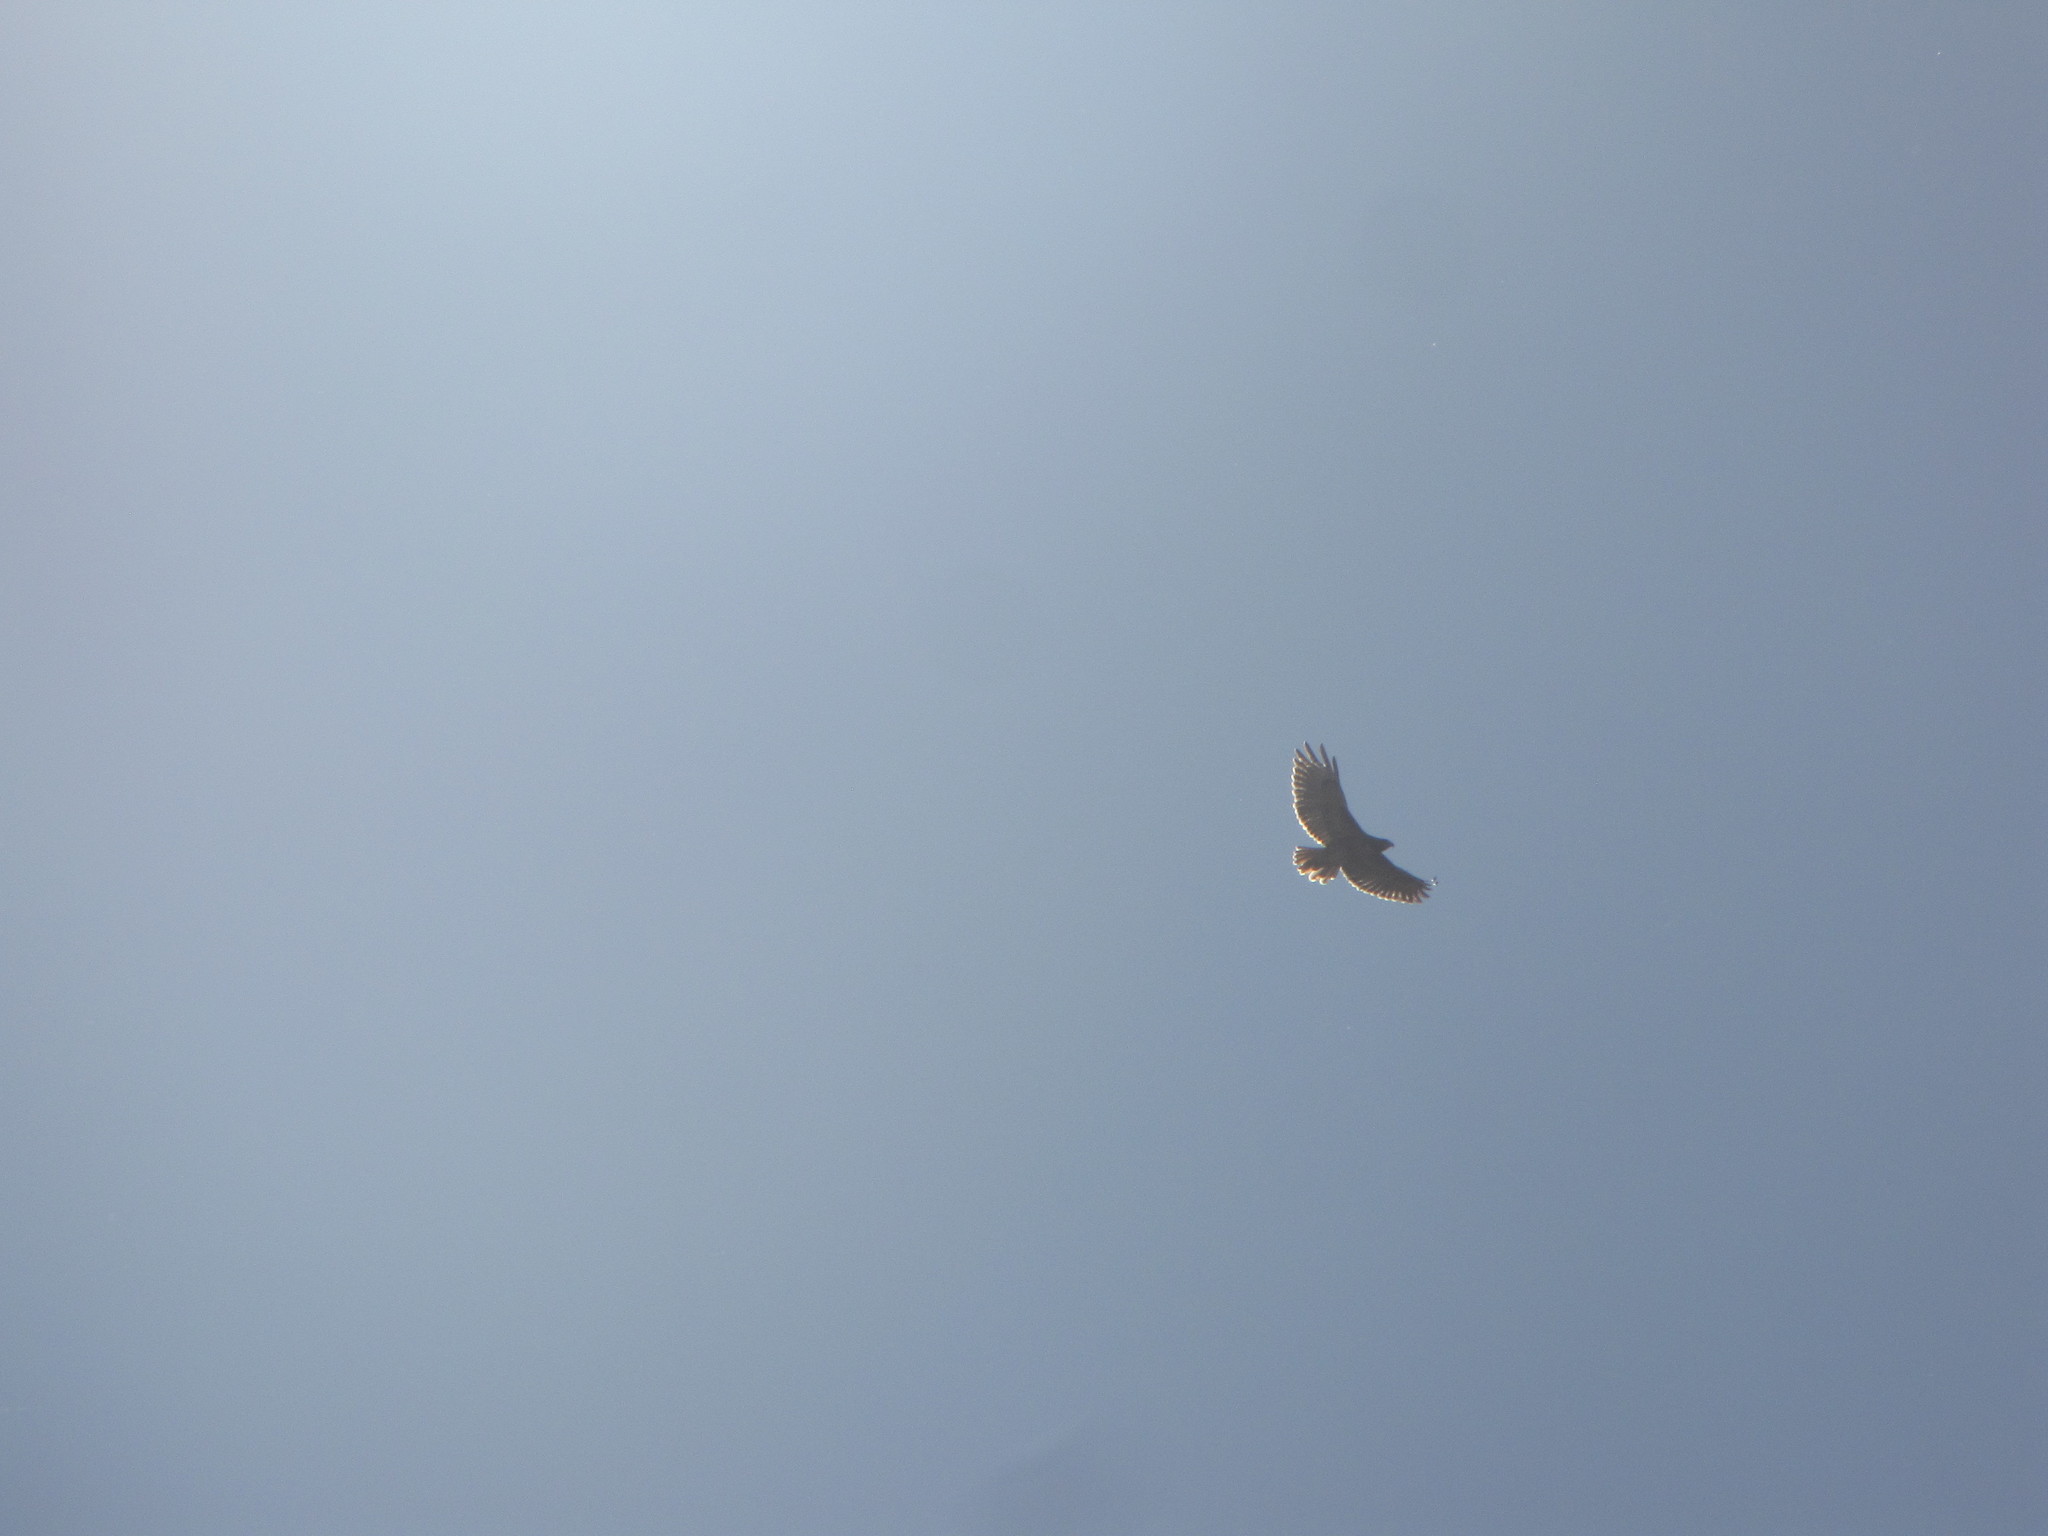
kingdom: Animalia
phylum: Chordata
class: Aves
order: Accipitriformes
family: Accipitridae
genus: Buteo
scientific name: Buteo jamaicensis
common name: Red-tailed hawk
